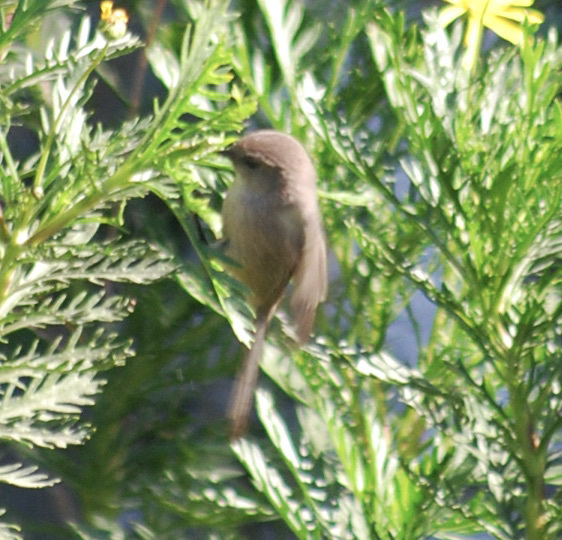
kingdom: Animalia
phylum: Chordata
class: Aves
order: Passeriformes
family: Aegithalidae
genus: Psaltriparus
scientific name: Psaltriparus minimus
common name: American bushtit
